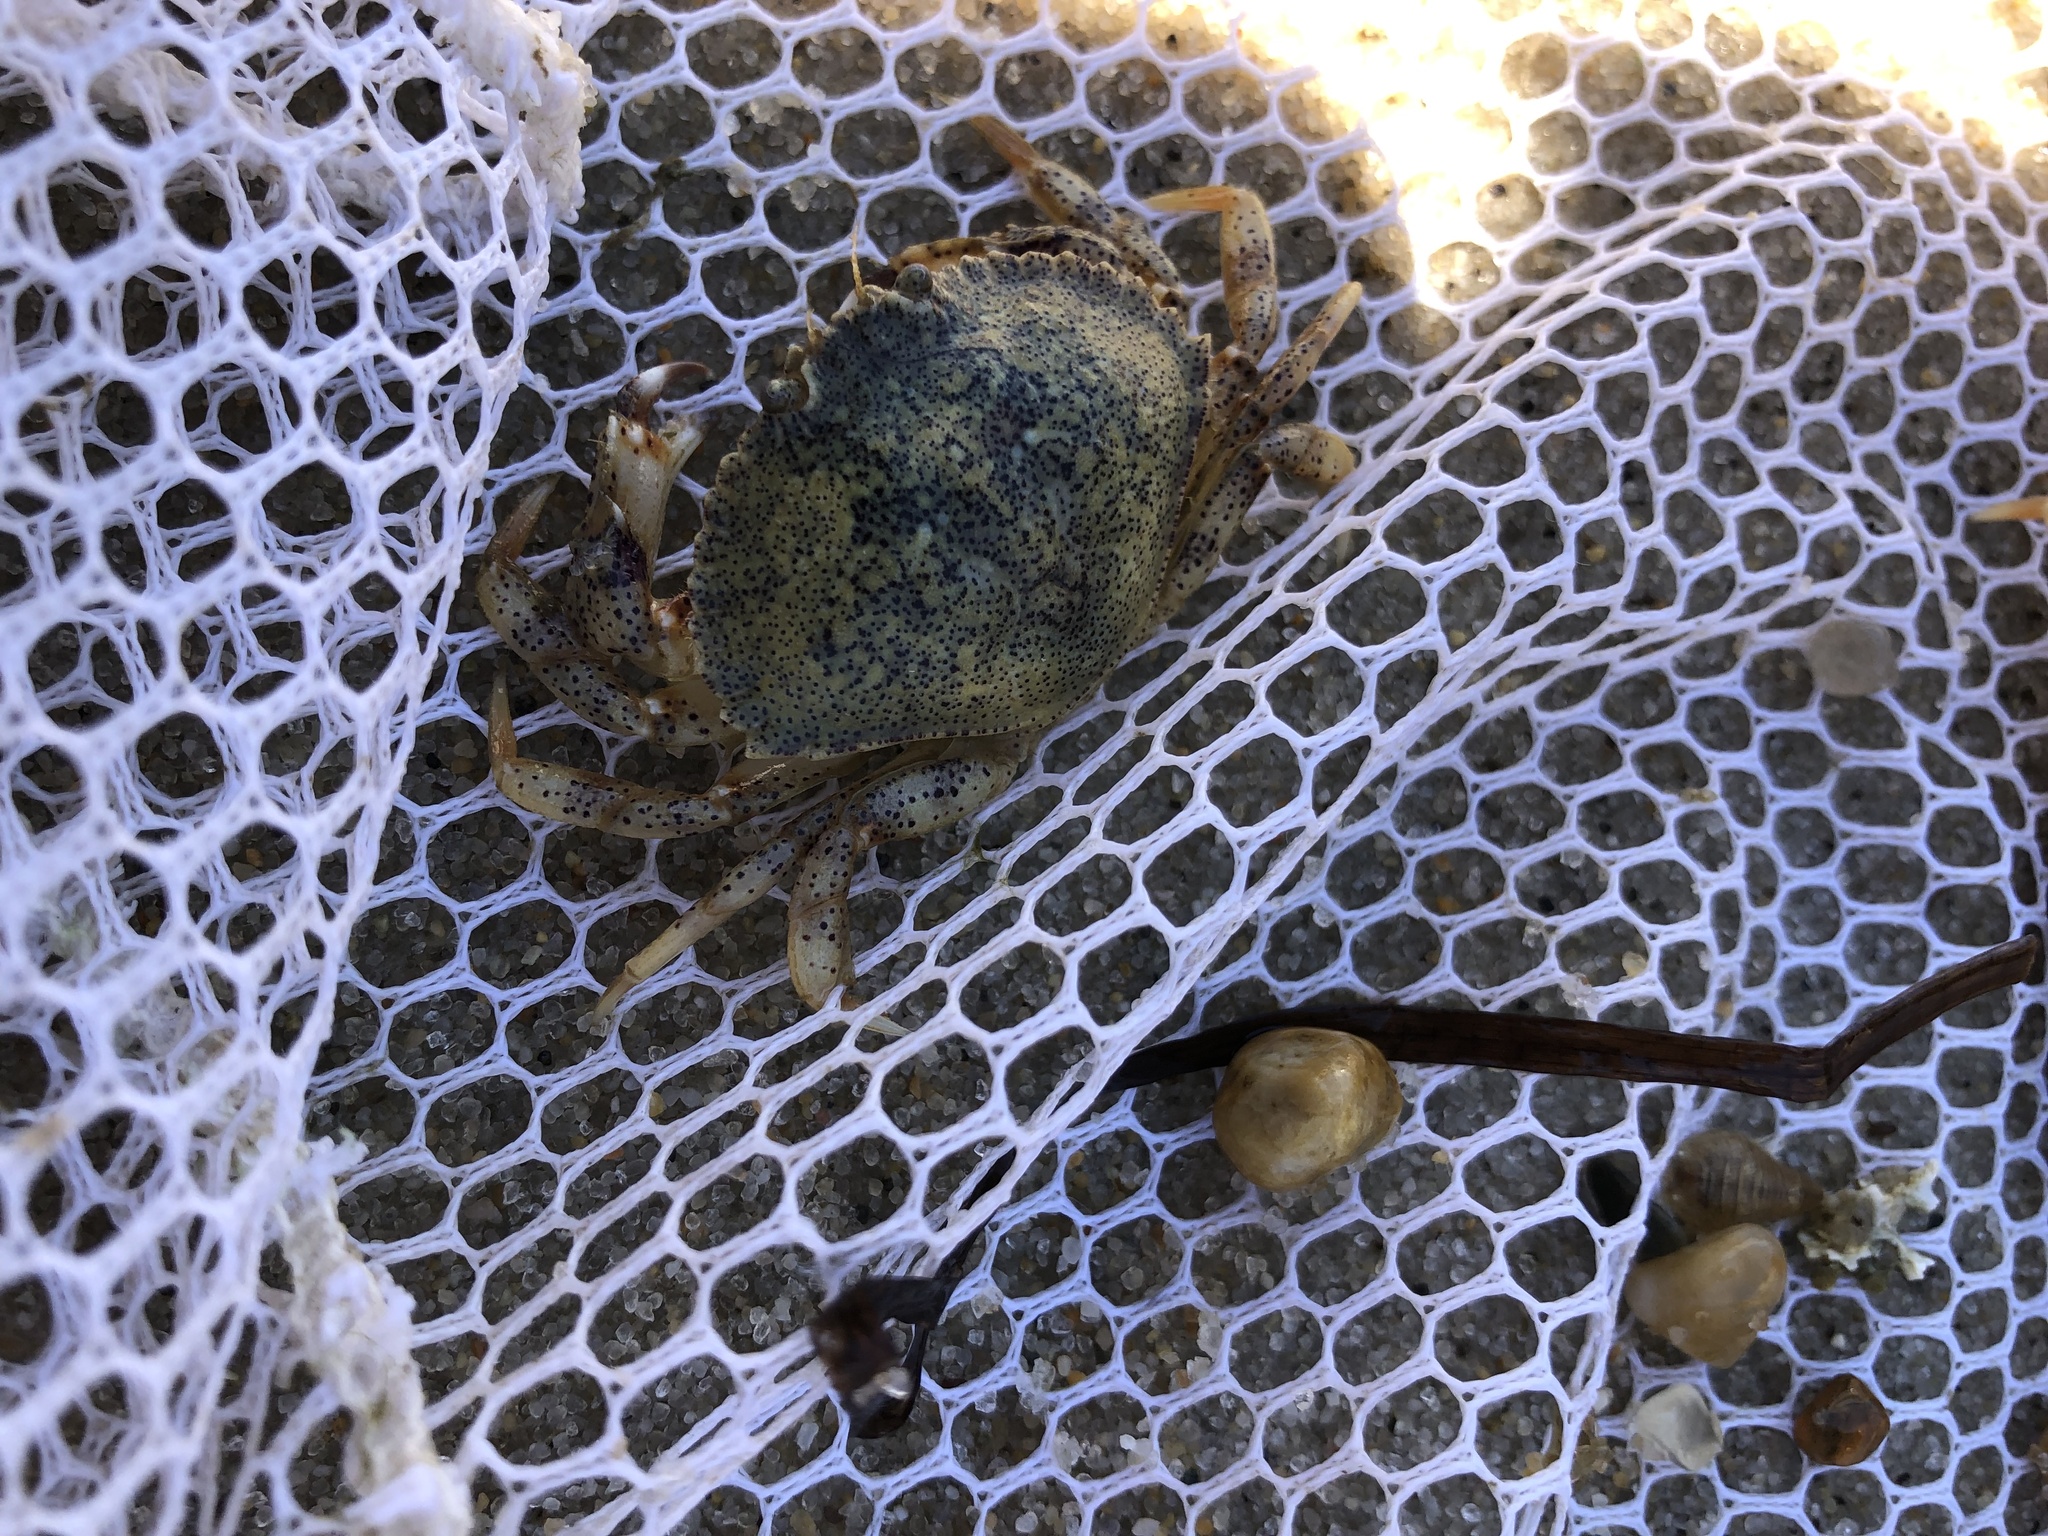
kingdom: Animalia
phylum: Arthropoda
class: Malacostraca
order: Decapoda
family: Cancridae
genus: Cancer
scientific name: Cancer irroratus
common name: Atlantic rock crab
